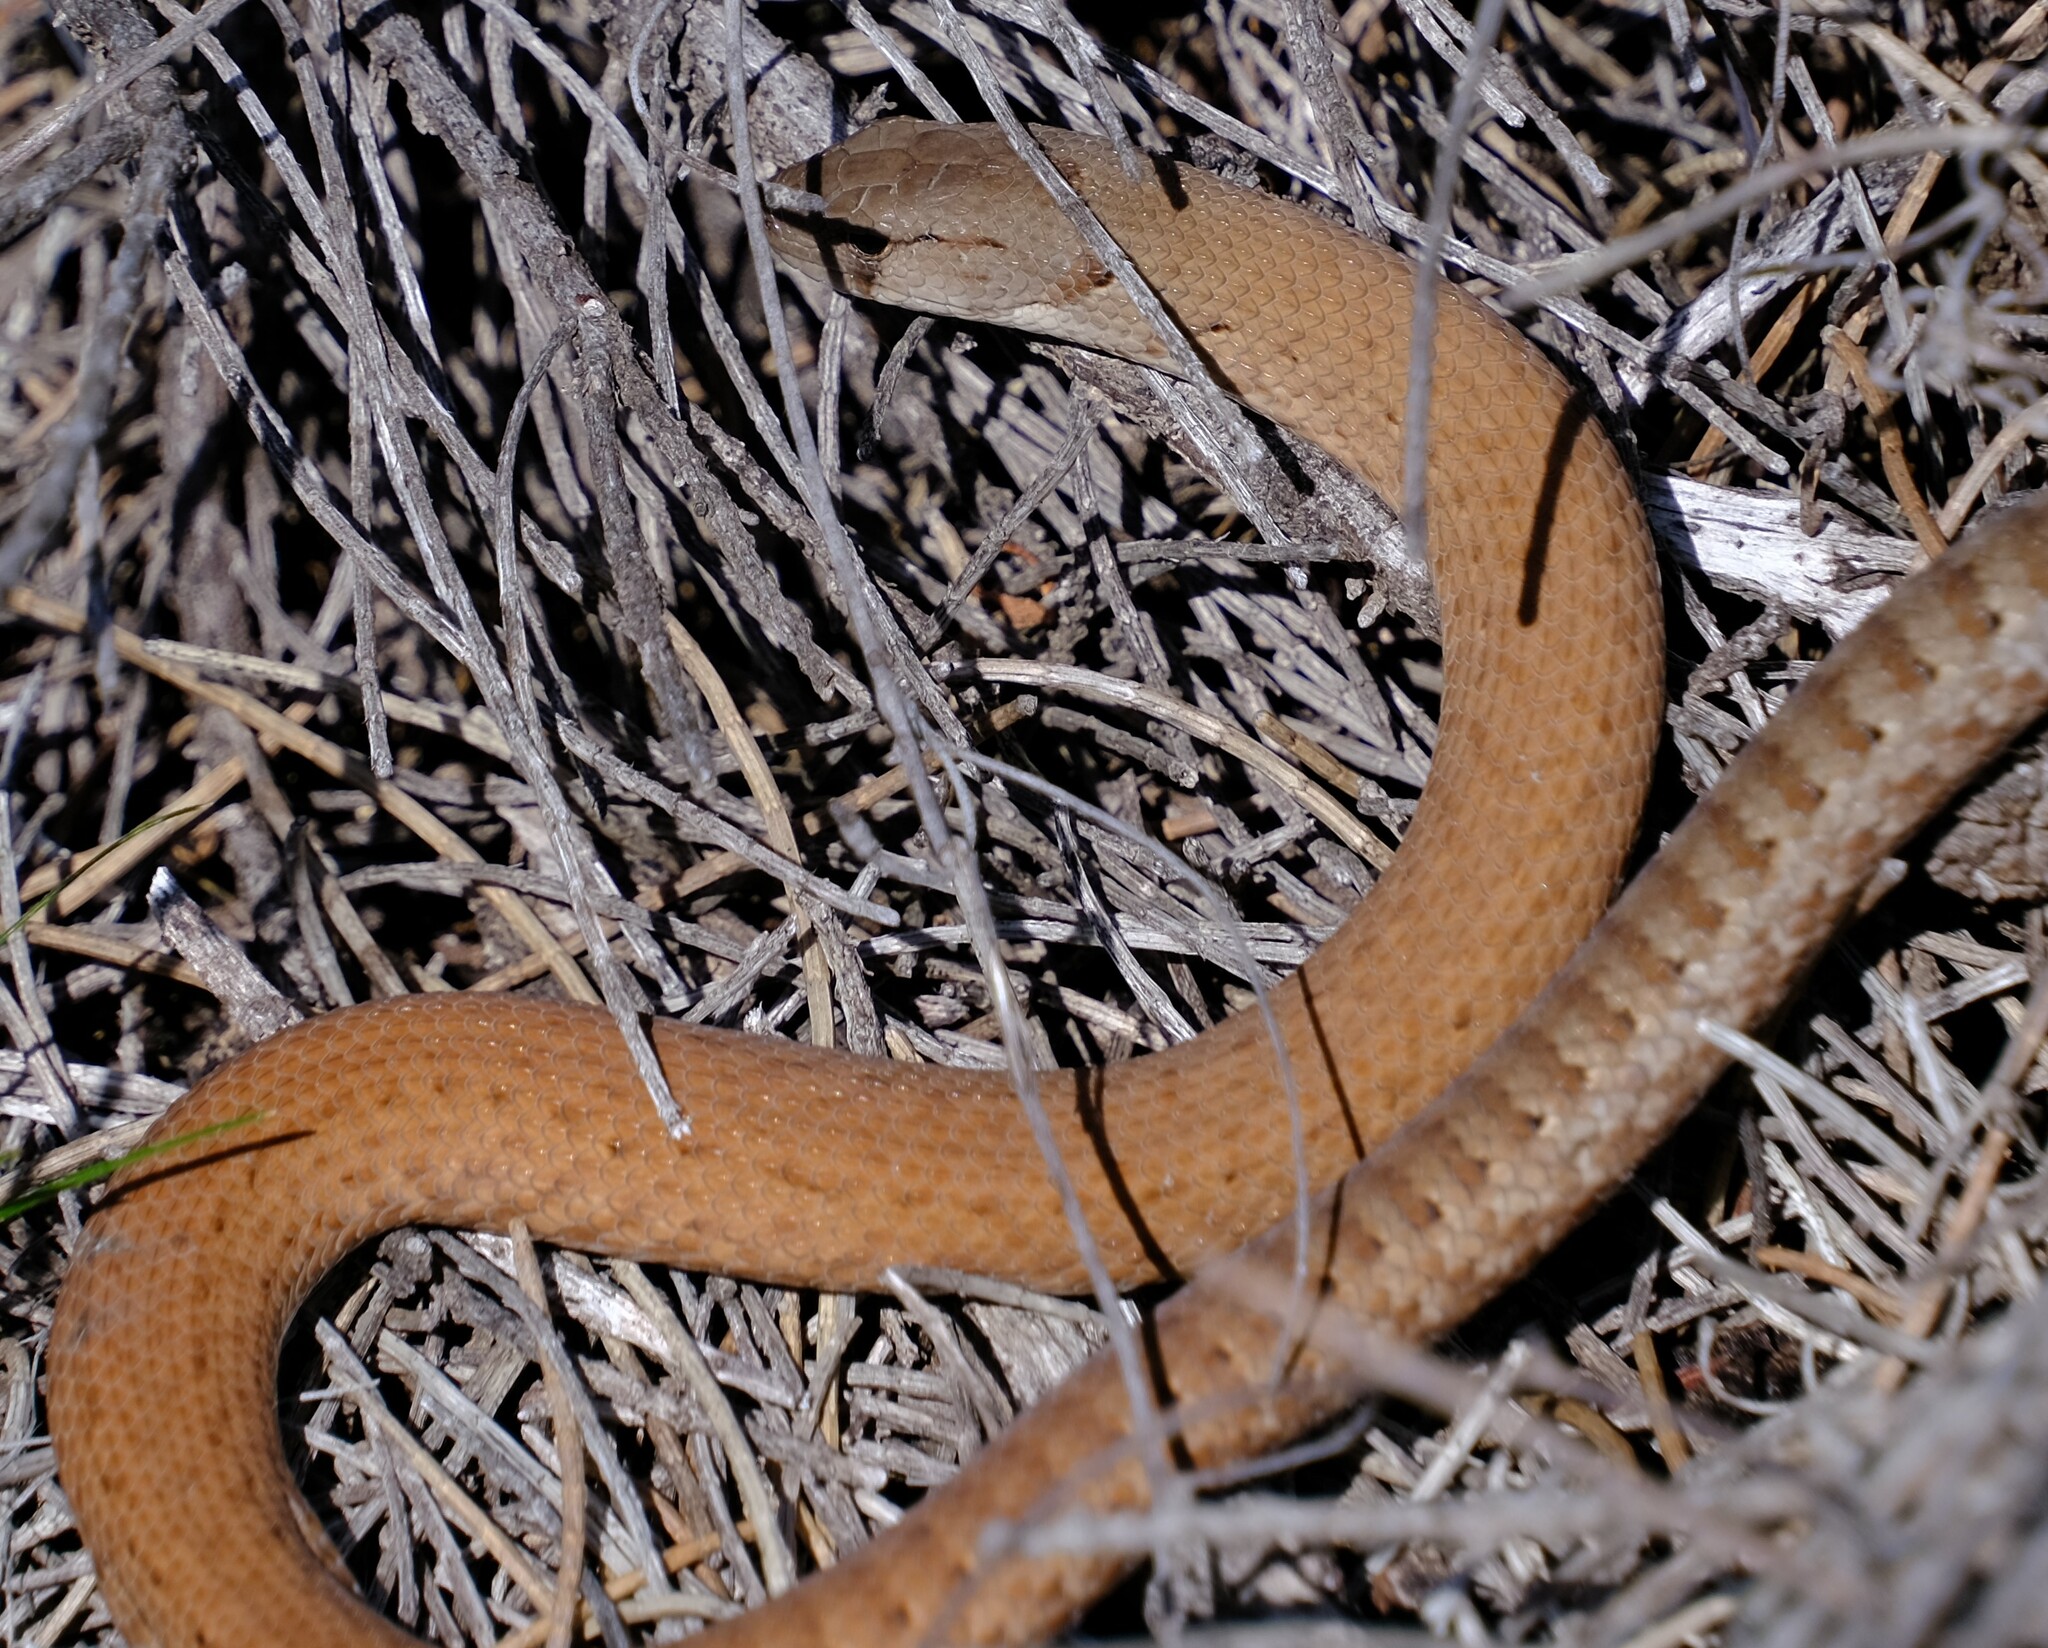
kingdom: Animalia
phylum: Chordata
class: Squamata
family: Pygopodidae
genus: Pygopus
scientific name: Pygopus lepidopodus
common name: Southern scaly-foot
